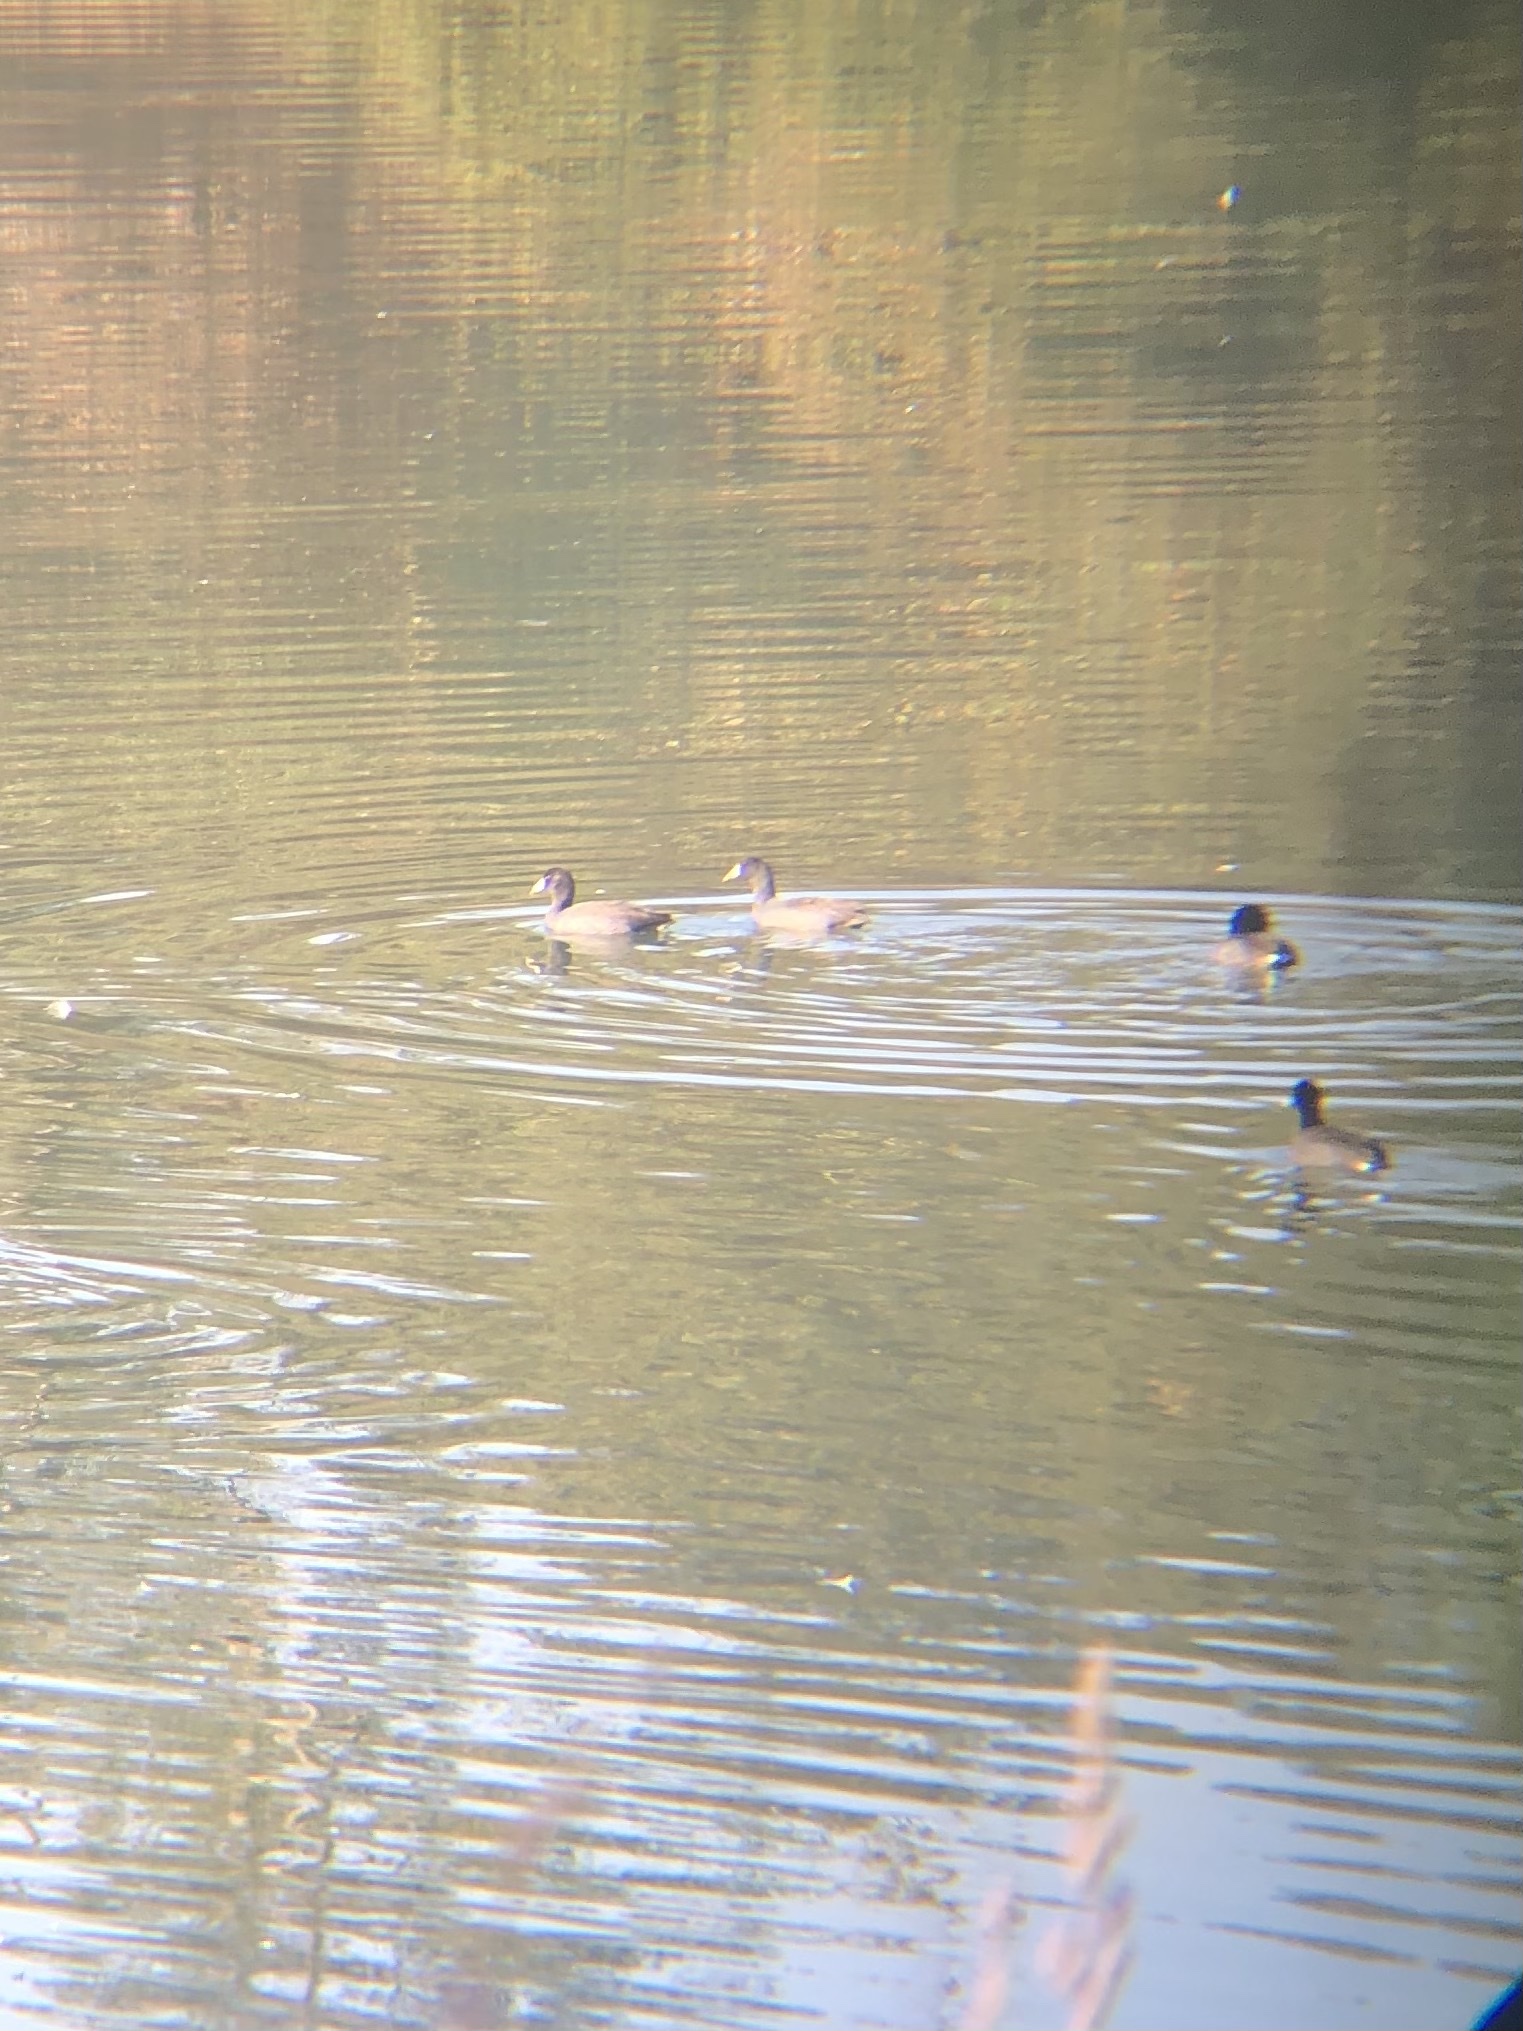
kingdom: Animalia
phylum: Chordata
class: Aves
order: Gruiformes
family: Rallidae
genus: Fulica
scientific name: Fulica americana
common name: American coot
